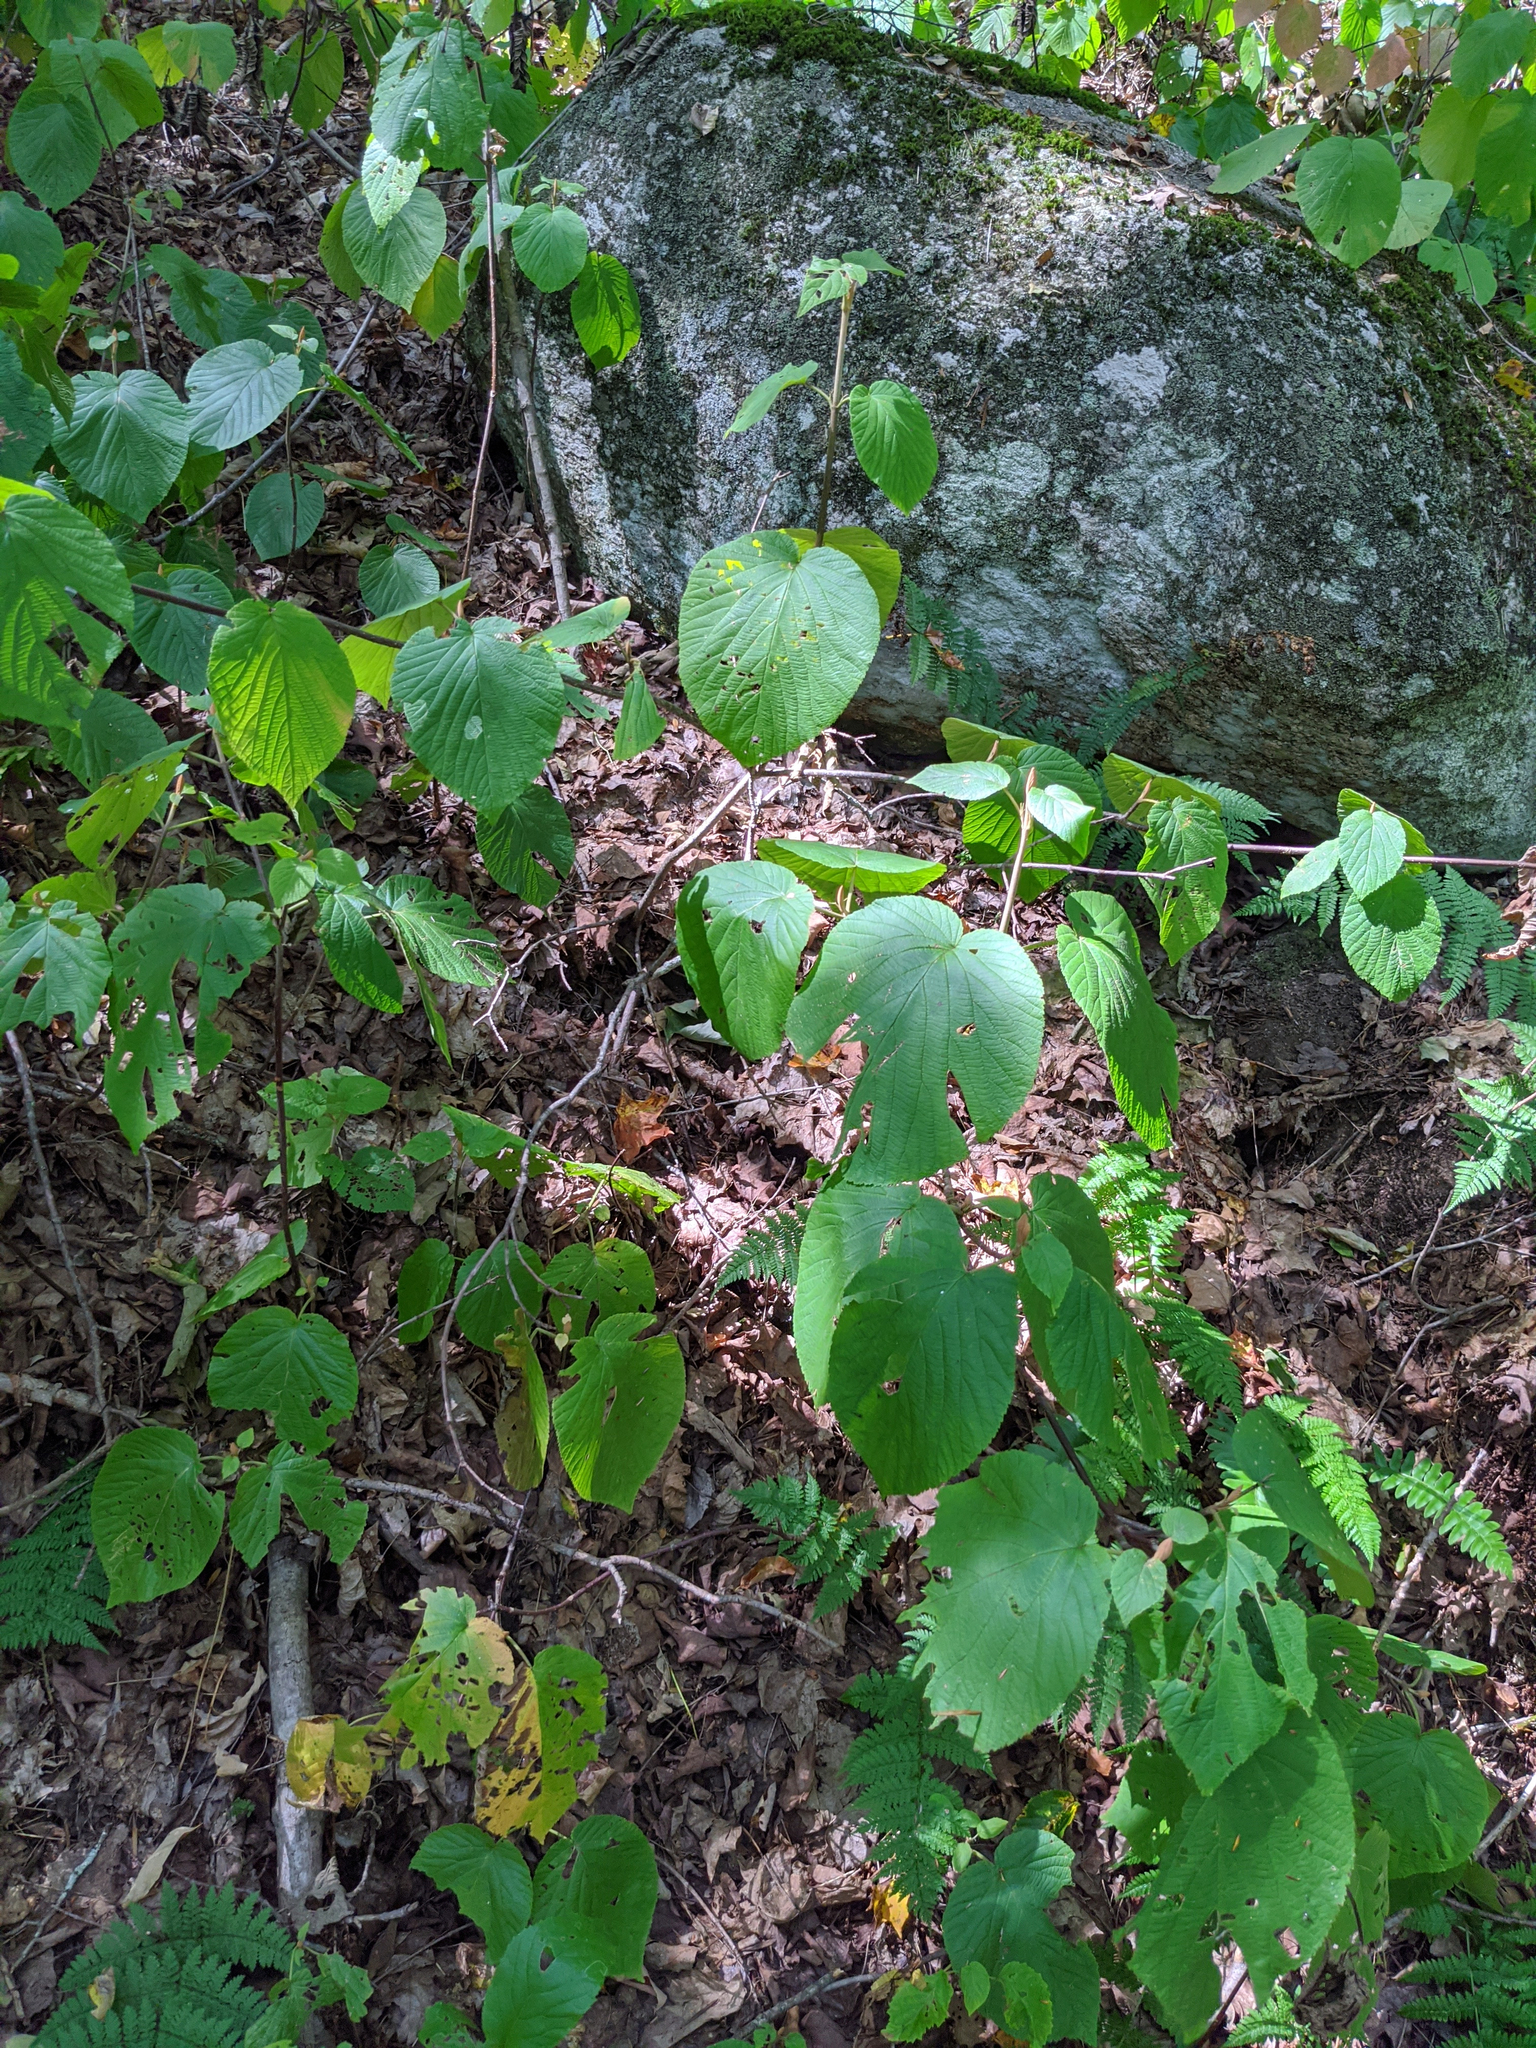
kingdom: Plantae
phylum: Tracheophyta
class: Magnoliopsida
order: Dipsacales
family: Viburnaceae
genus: Viburnum
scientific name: Viburnum lantanoides
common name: Hobblebush
